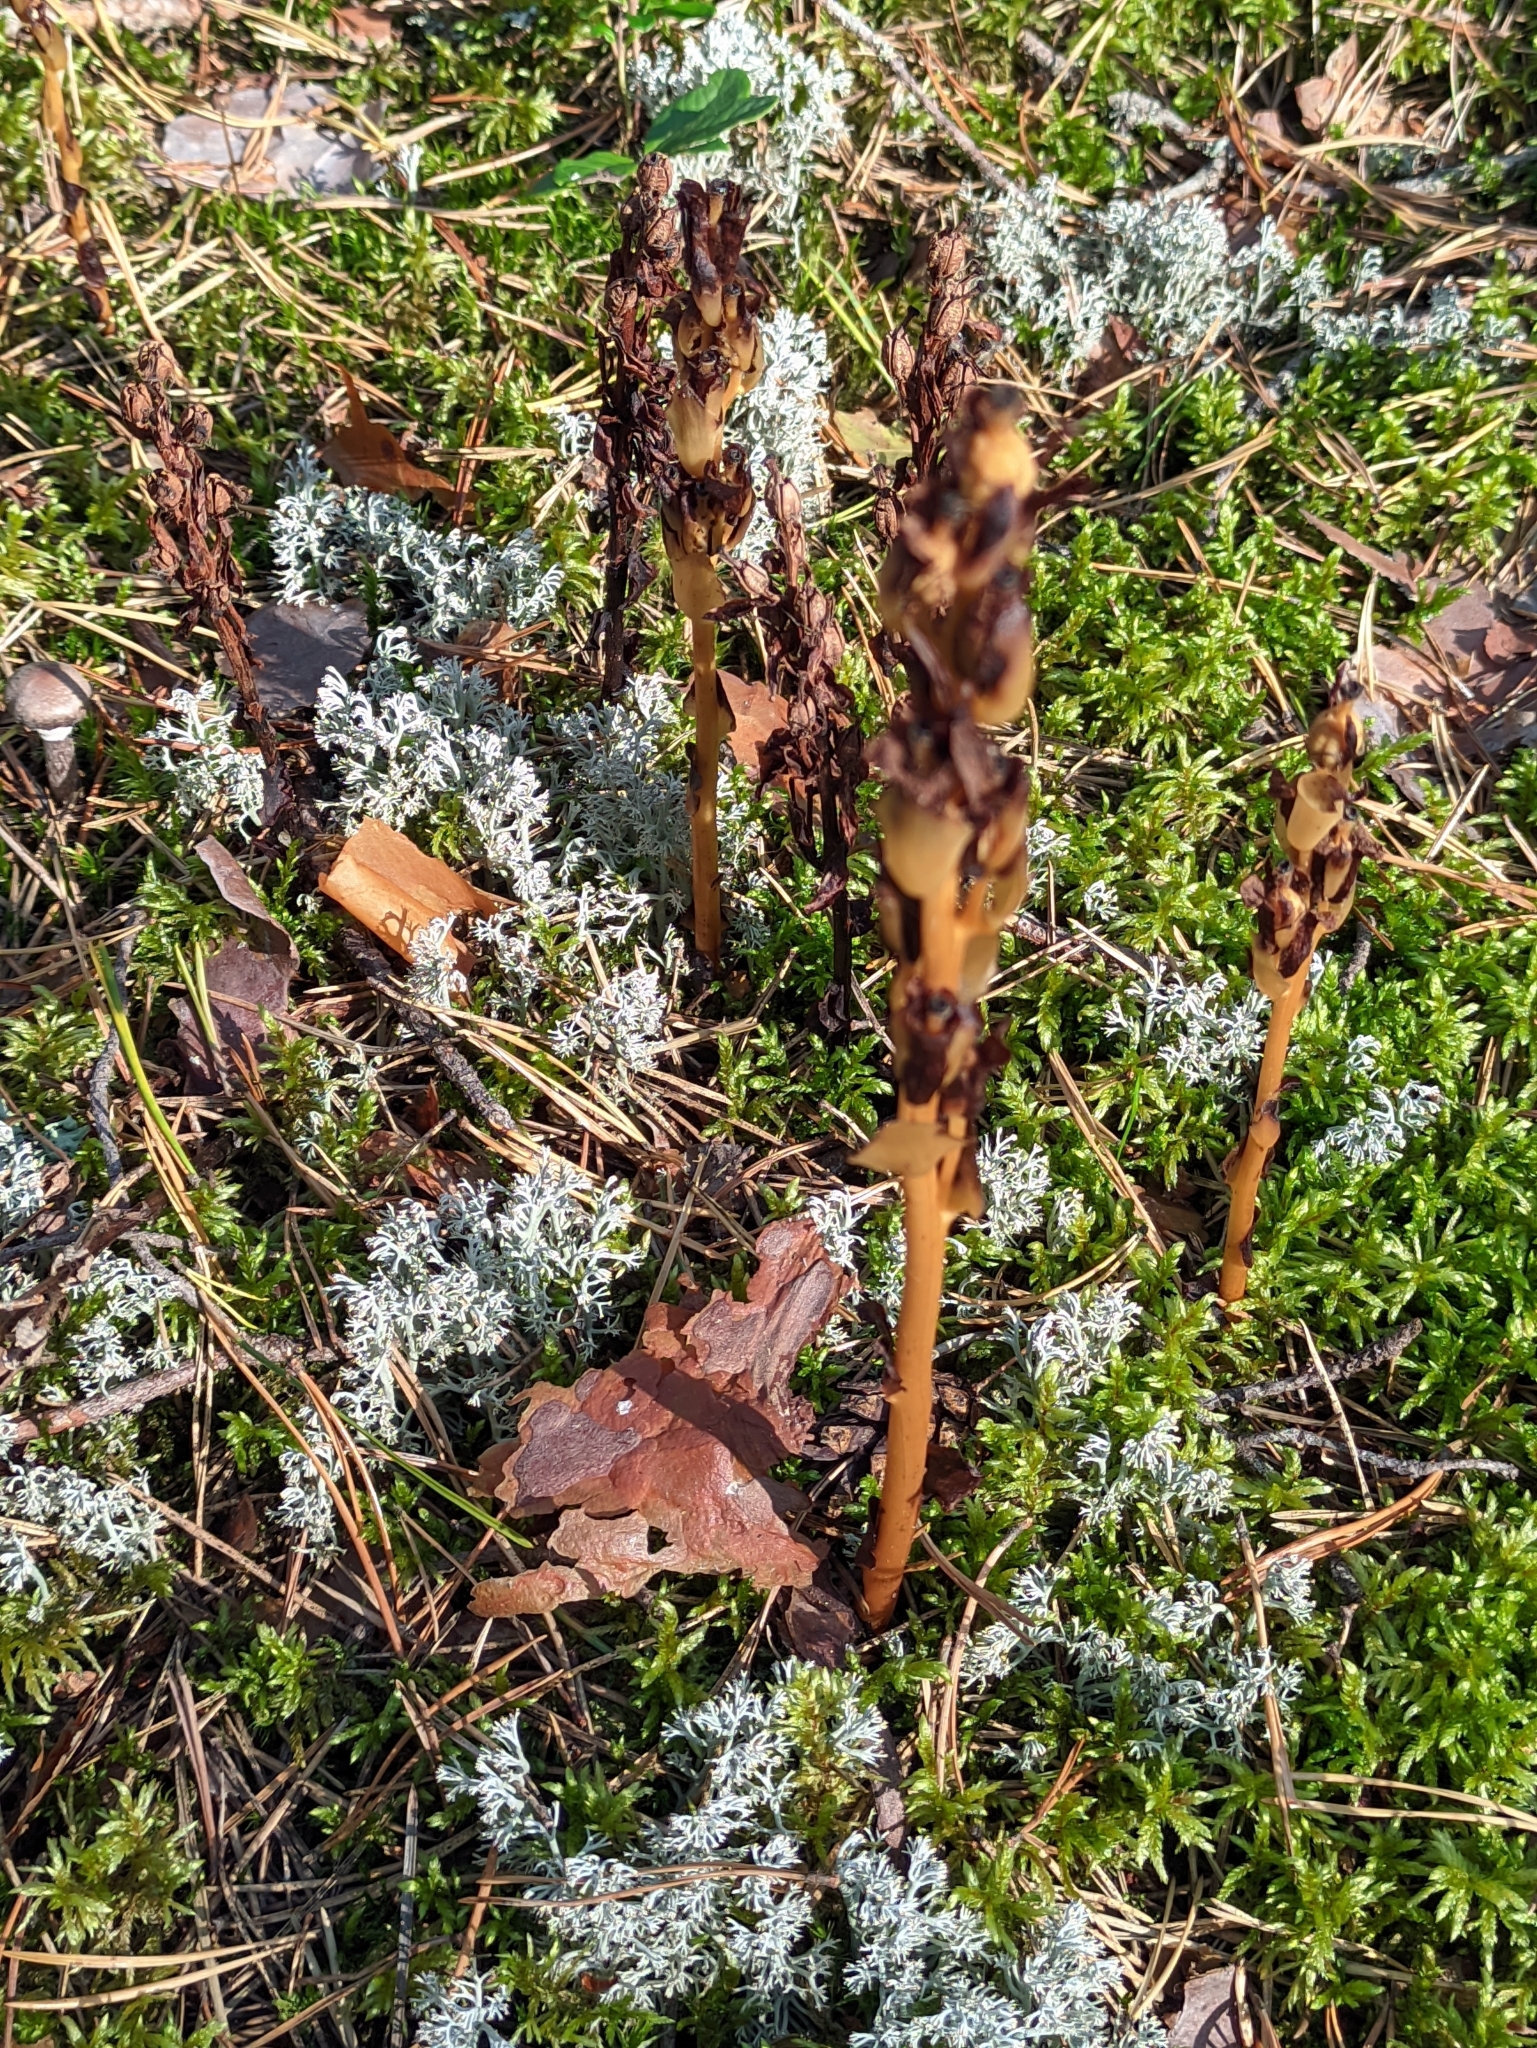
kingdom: Plantae
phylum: Tracheophyta
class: Magnoliopsida
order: Ericales
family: Ericaceae
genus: Hypopitys
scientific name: Hypopitys monotropa
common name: Yellow bird's-nest
